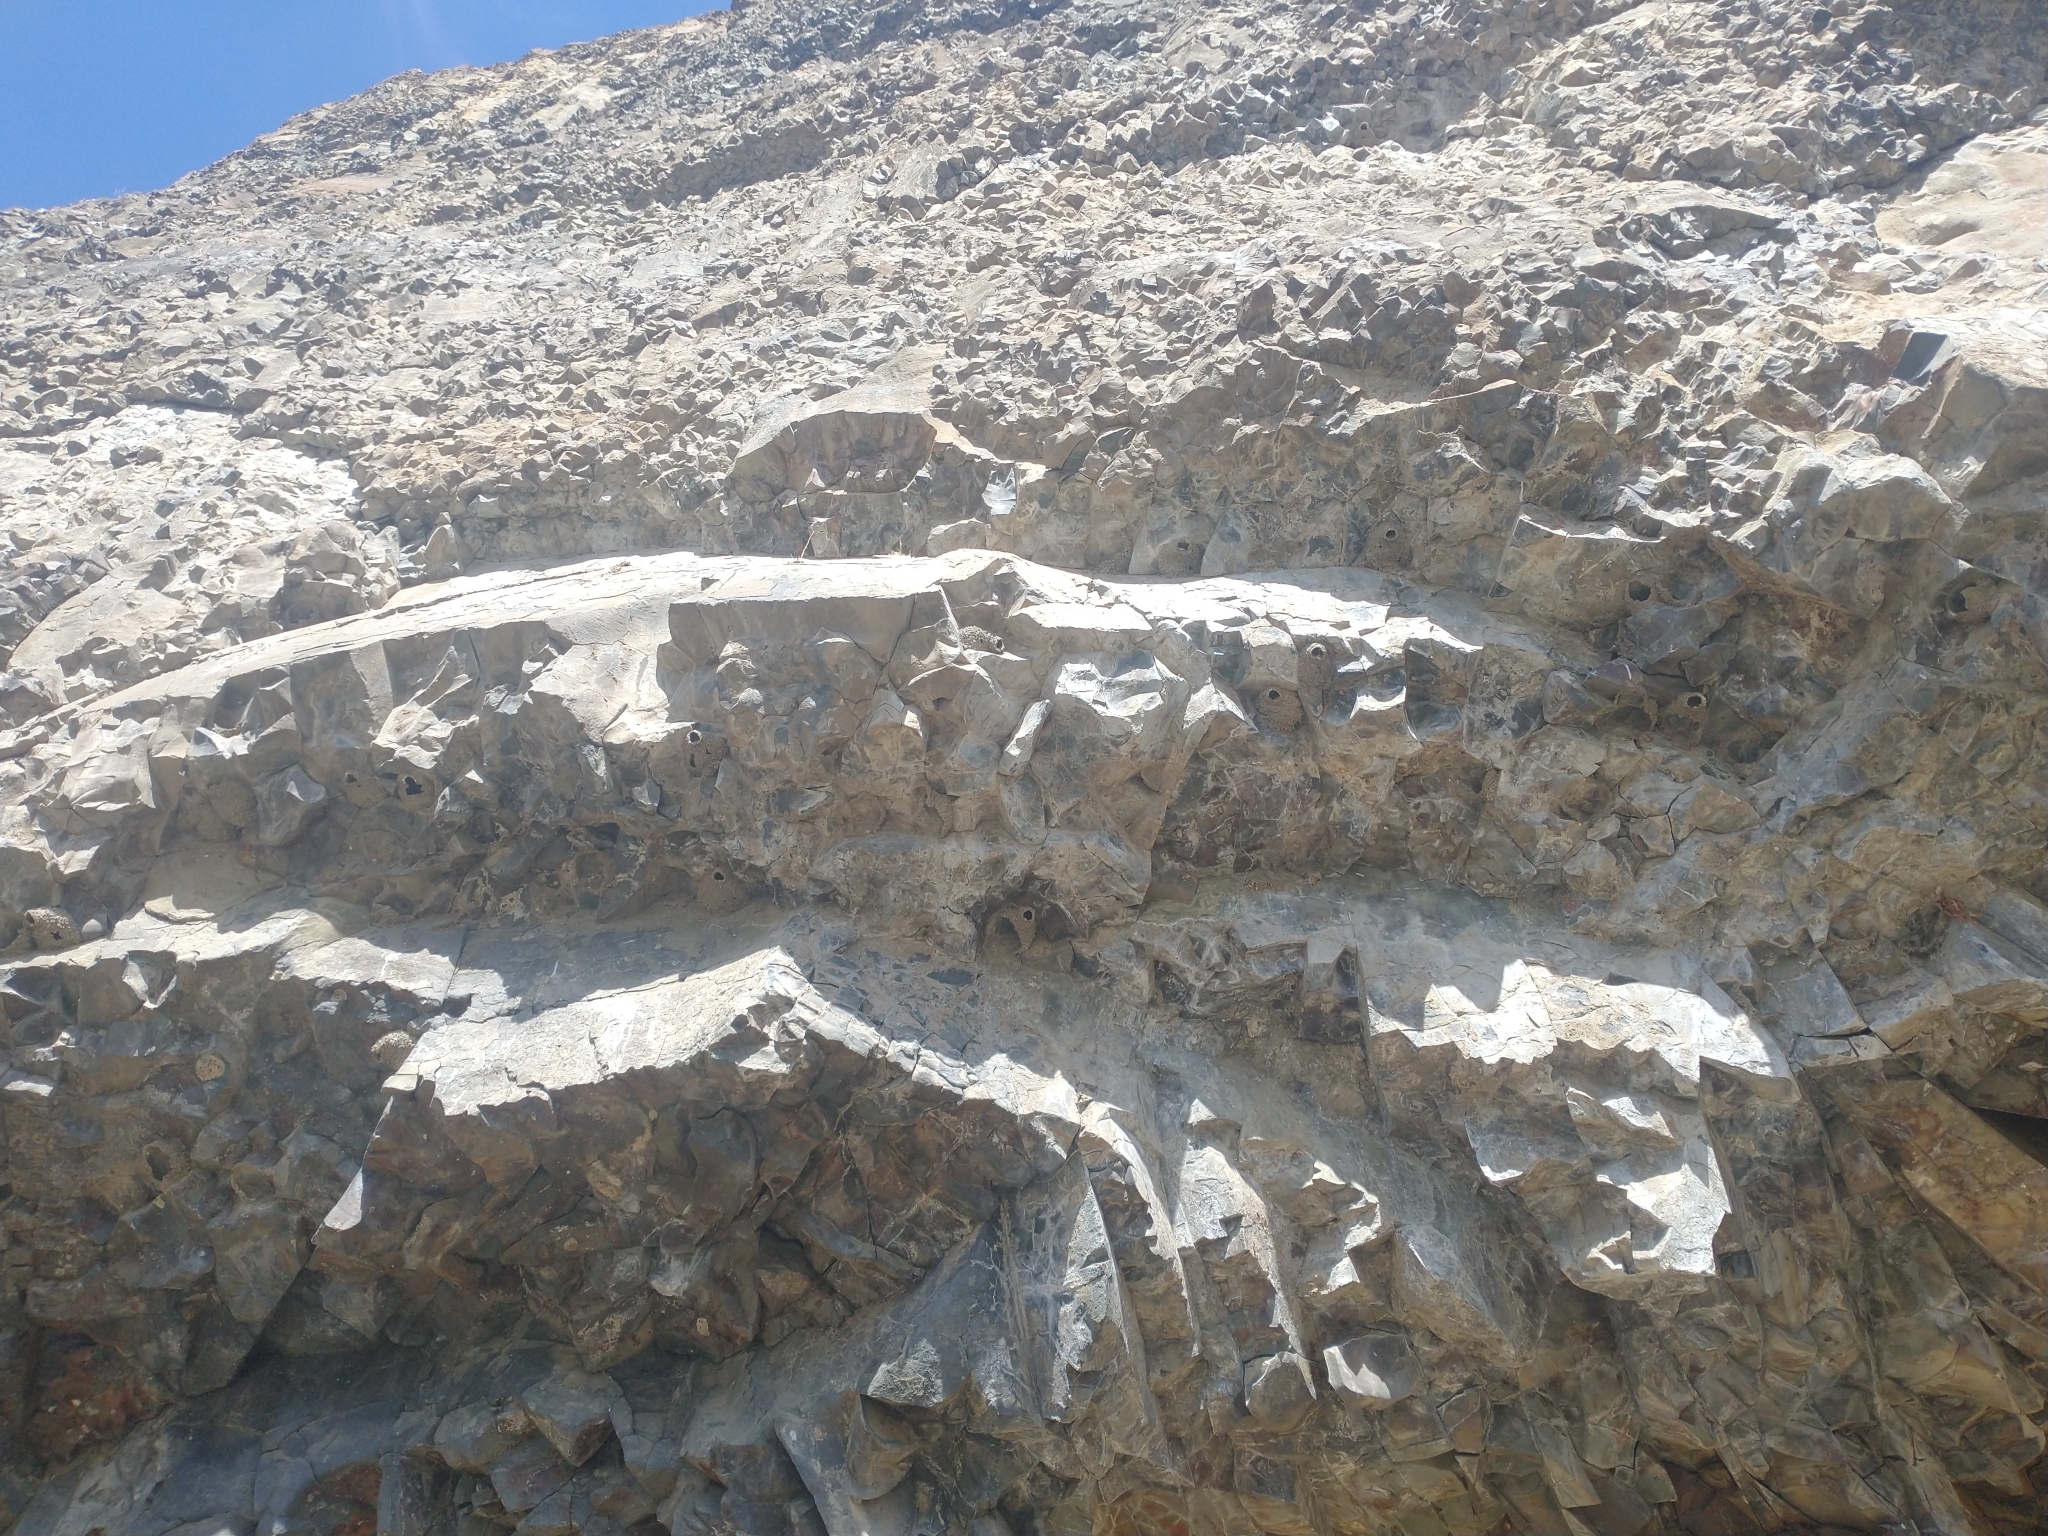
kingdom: Animalia
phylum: Chordata
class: Aves
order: Passeriformes
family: Hirundinidae
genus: Petrochelidon
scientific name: Petrochelidon pyrrhonota
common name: American cliff swallow
